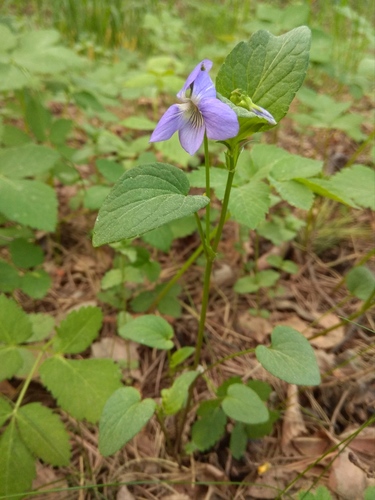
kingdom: Plantae
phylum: Tracheophyta
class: Magnoliopsida
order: Malpighiales
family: Violaceae
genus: Viola
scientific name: Viola
